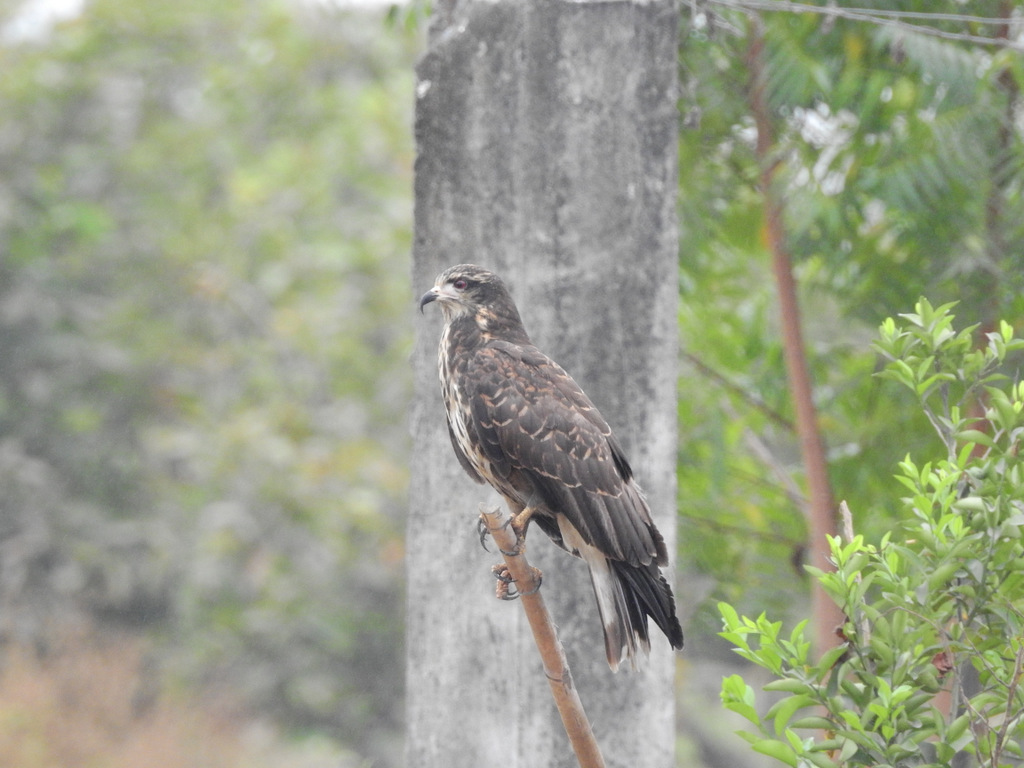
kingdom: Animalia
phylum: Chordata
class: Aves
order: Accipitriformes
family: Accipitridae
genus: Rostrhamus
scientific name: Rostrhamus sociabilis
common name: Snail kite
